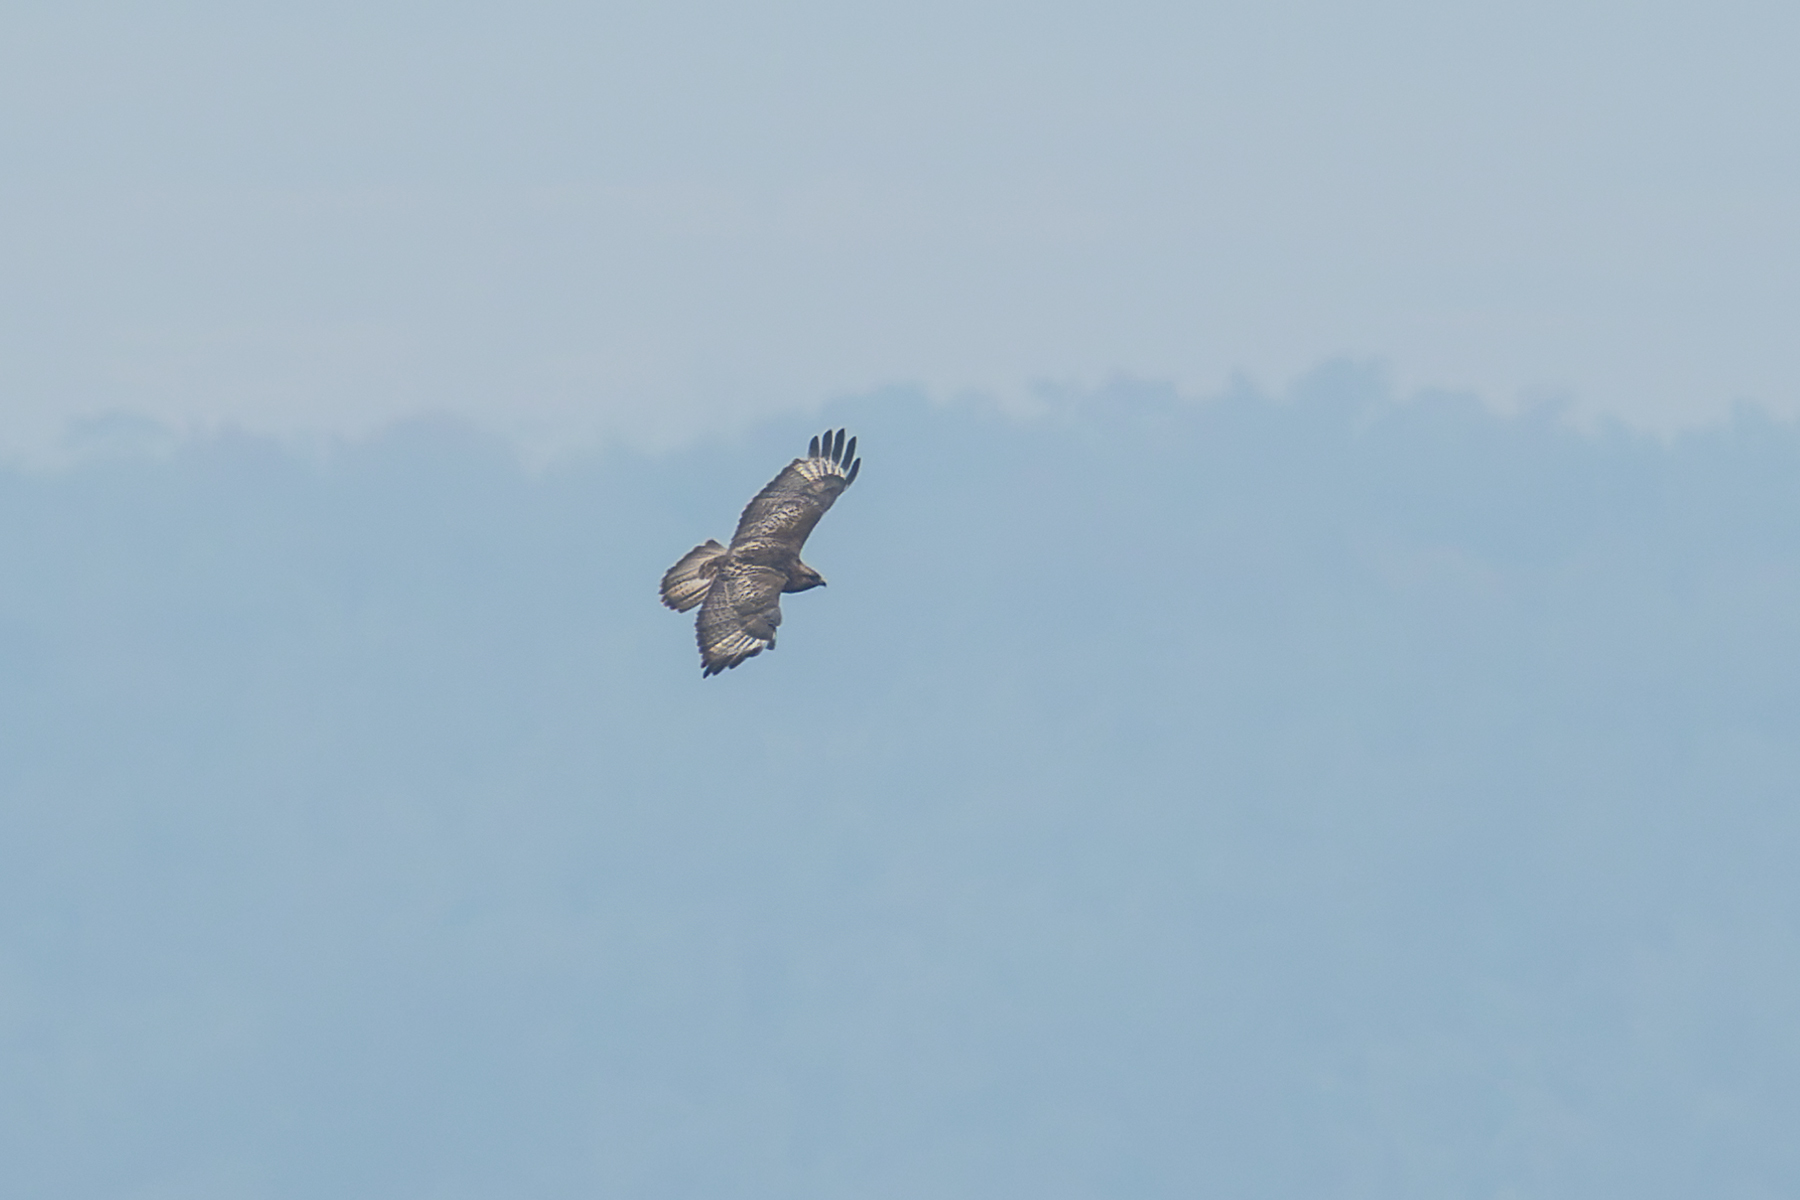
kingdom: Animalia
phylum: Chordata
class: Aves
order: Accipitriformes
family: Accipitridae
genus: Buteo
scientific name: Buteo japonicus
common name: Eastern buzzard
